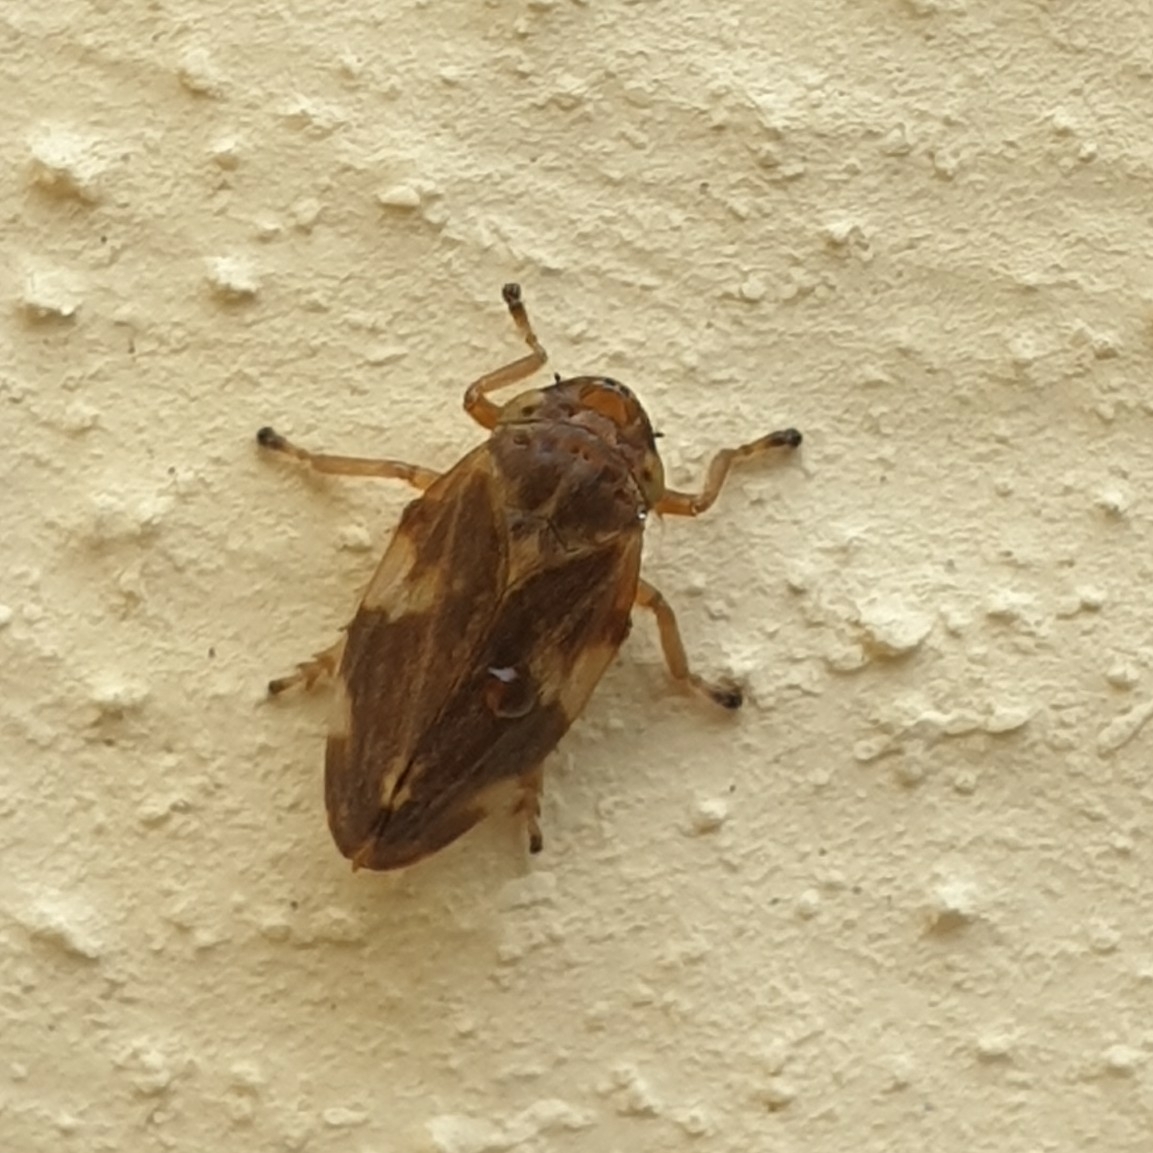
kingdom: Animalia
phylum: Arthropoda
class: Insecta
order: Hemiptera
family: Aphrophoridae
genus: Philaenus
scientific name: Philaenus spumarius
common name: Meadow spittlebug
